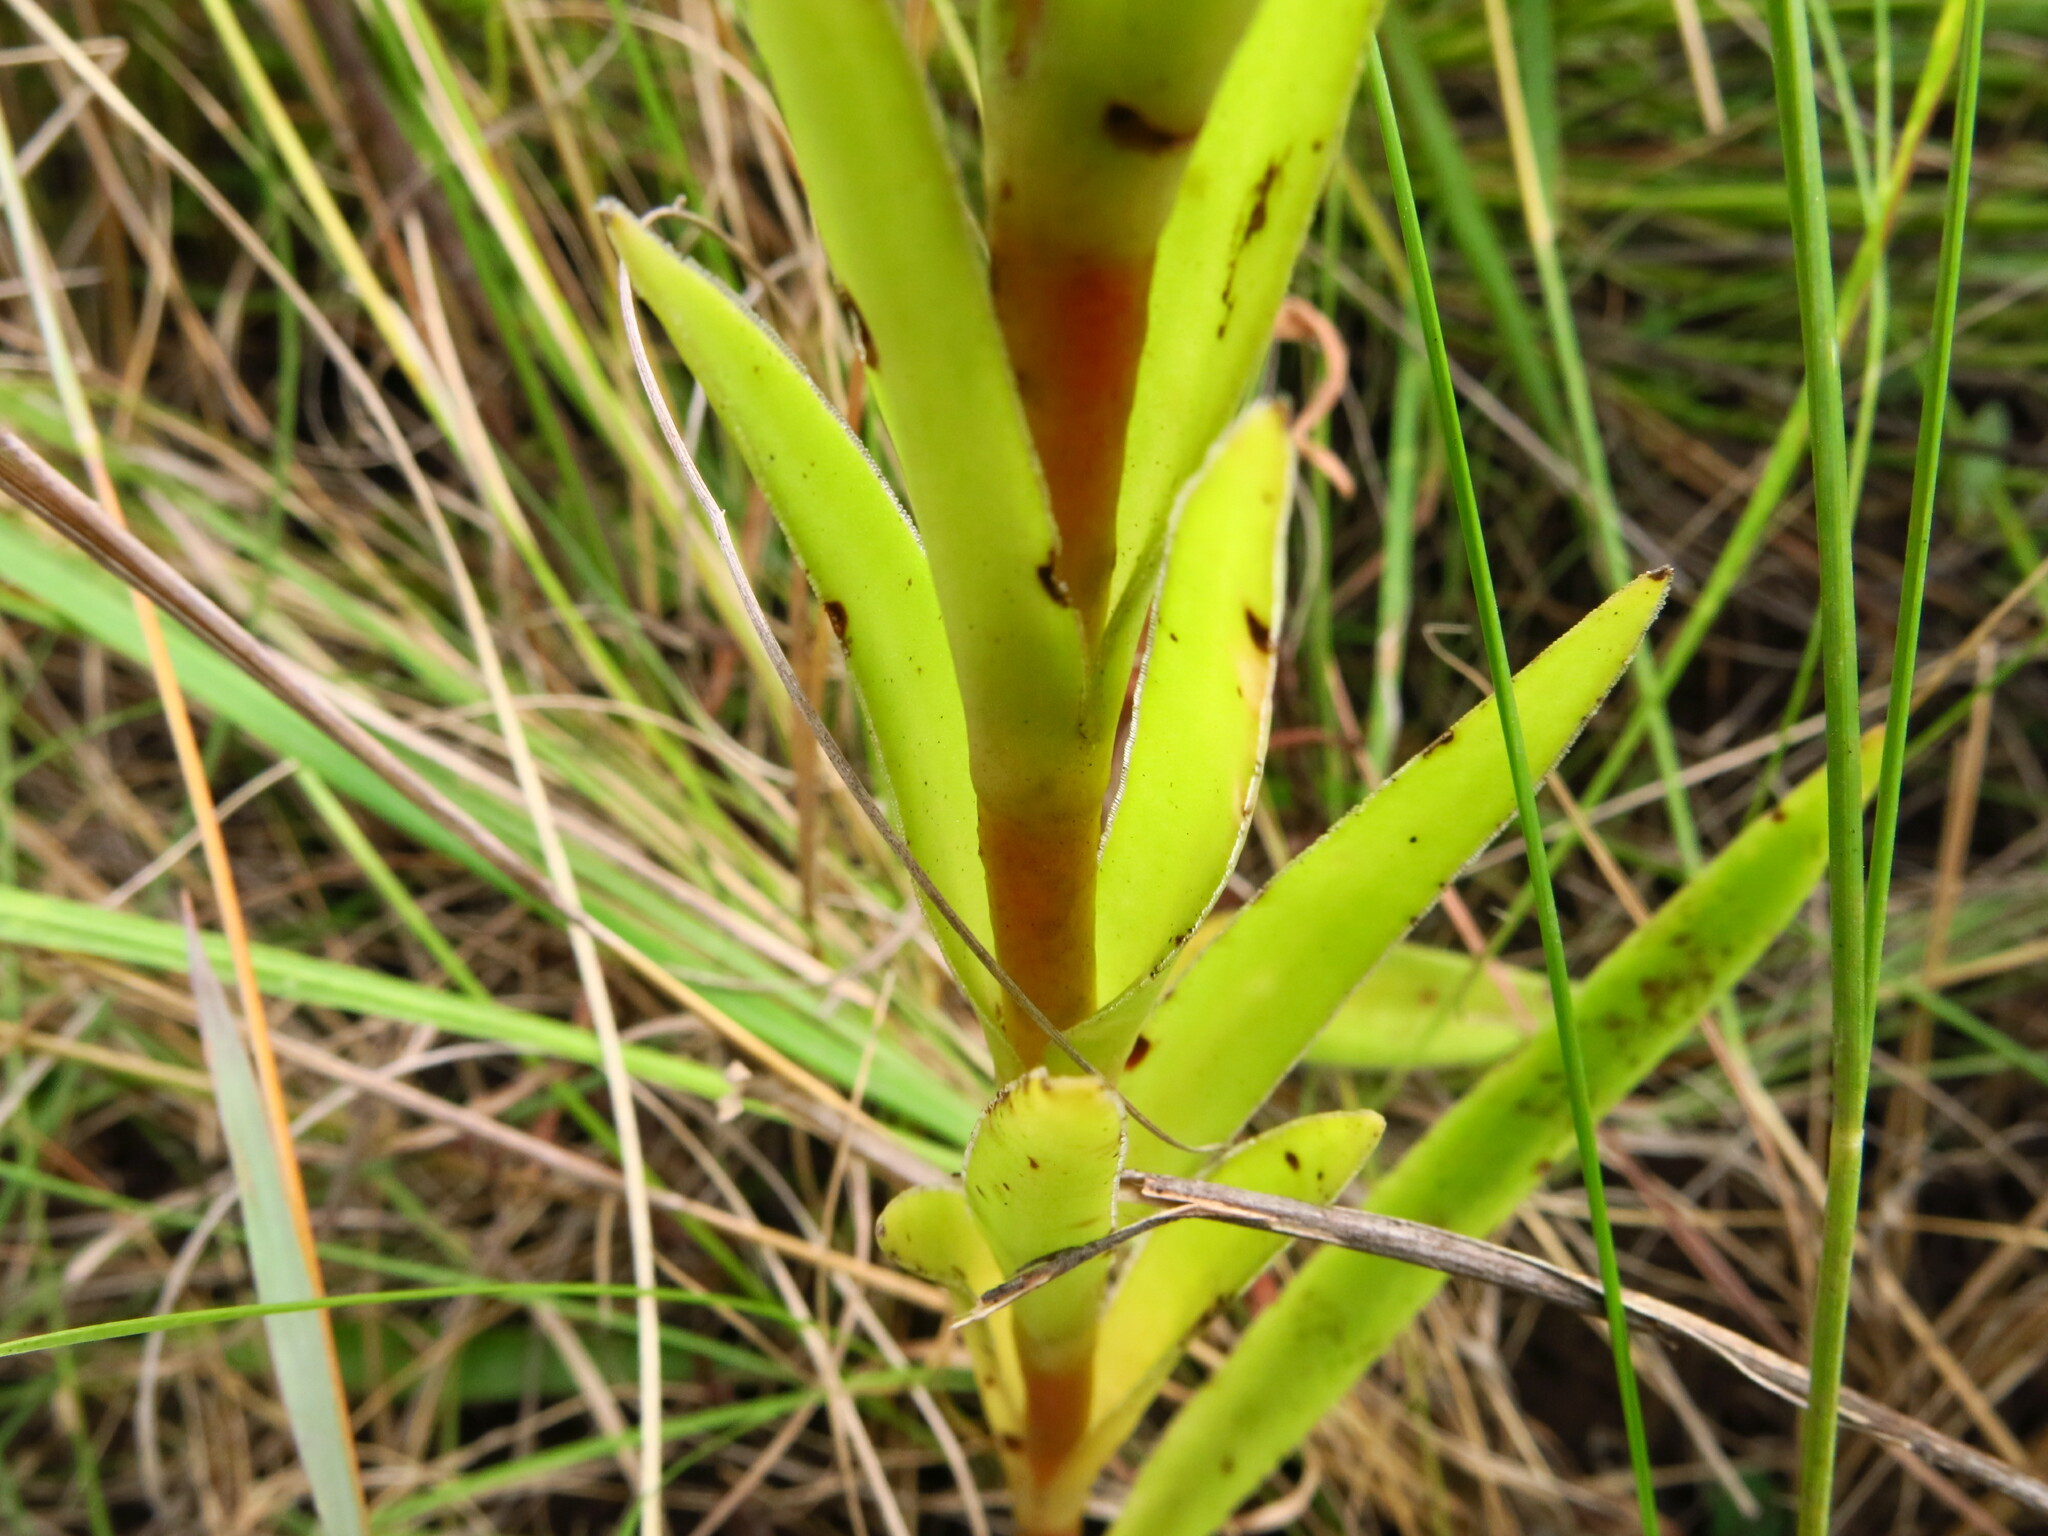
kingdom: Plantae
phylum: Tracheophyta
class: Magnoliopsida
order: Saxifragales
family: Crassulaceae
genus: Crassula
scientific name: Crassula vaginata
